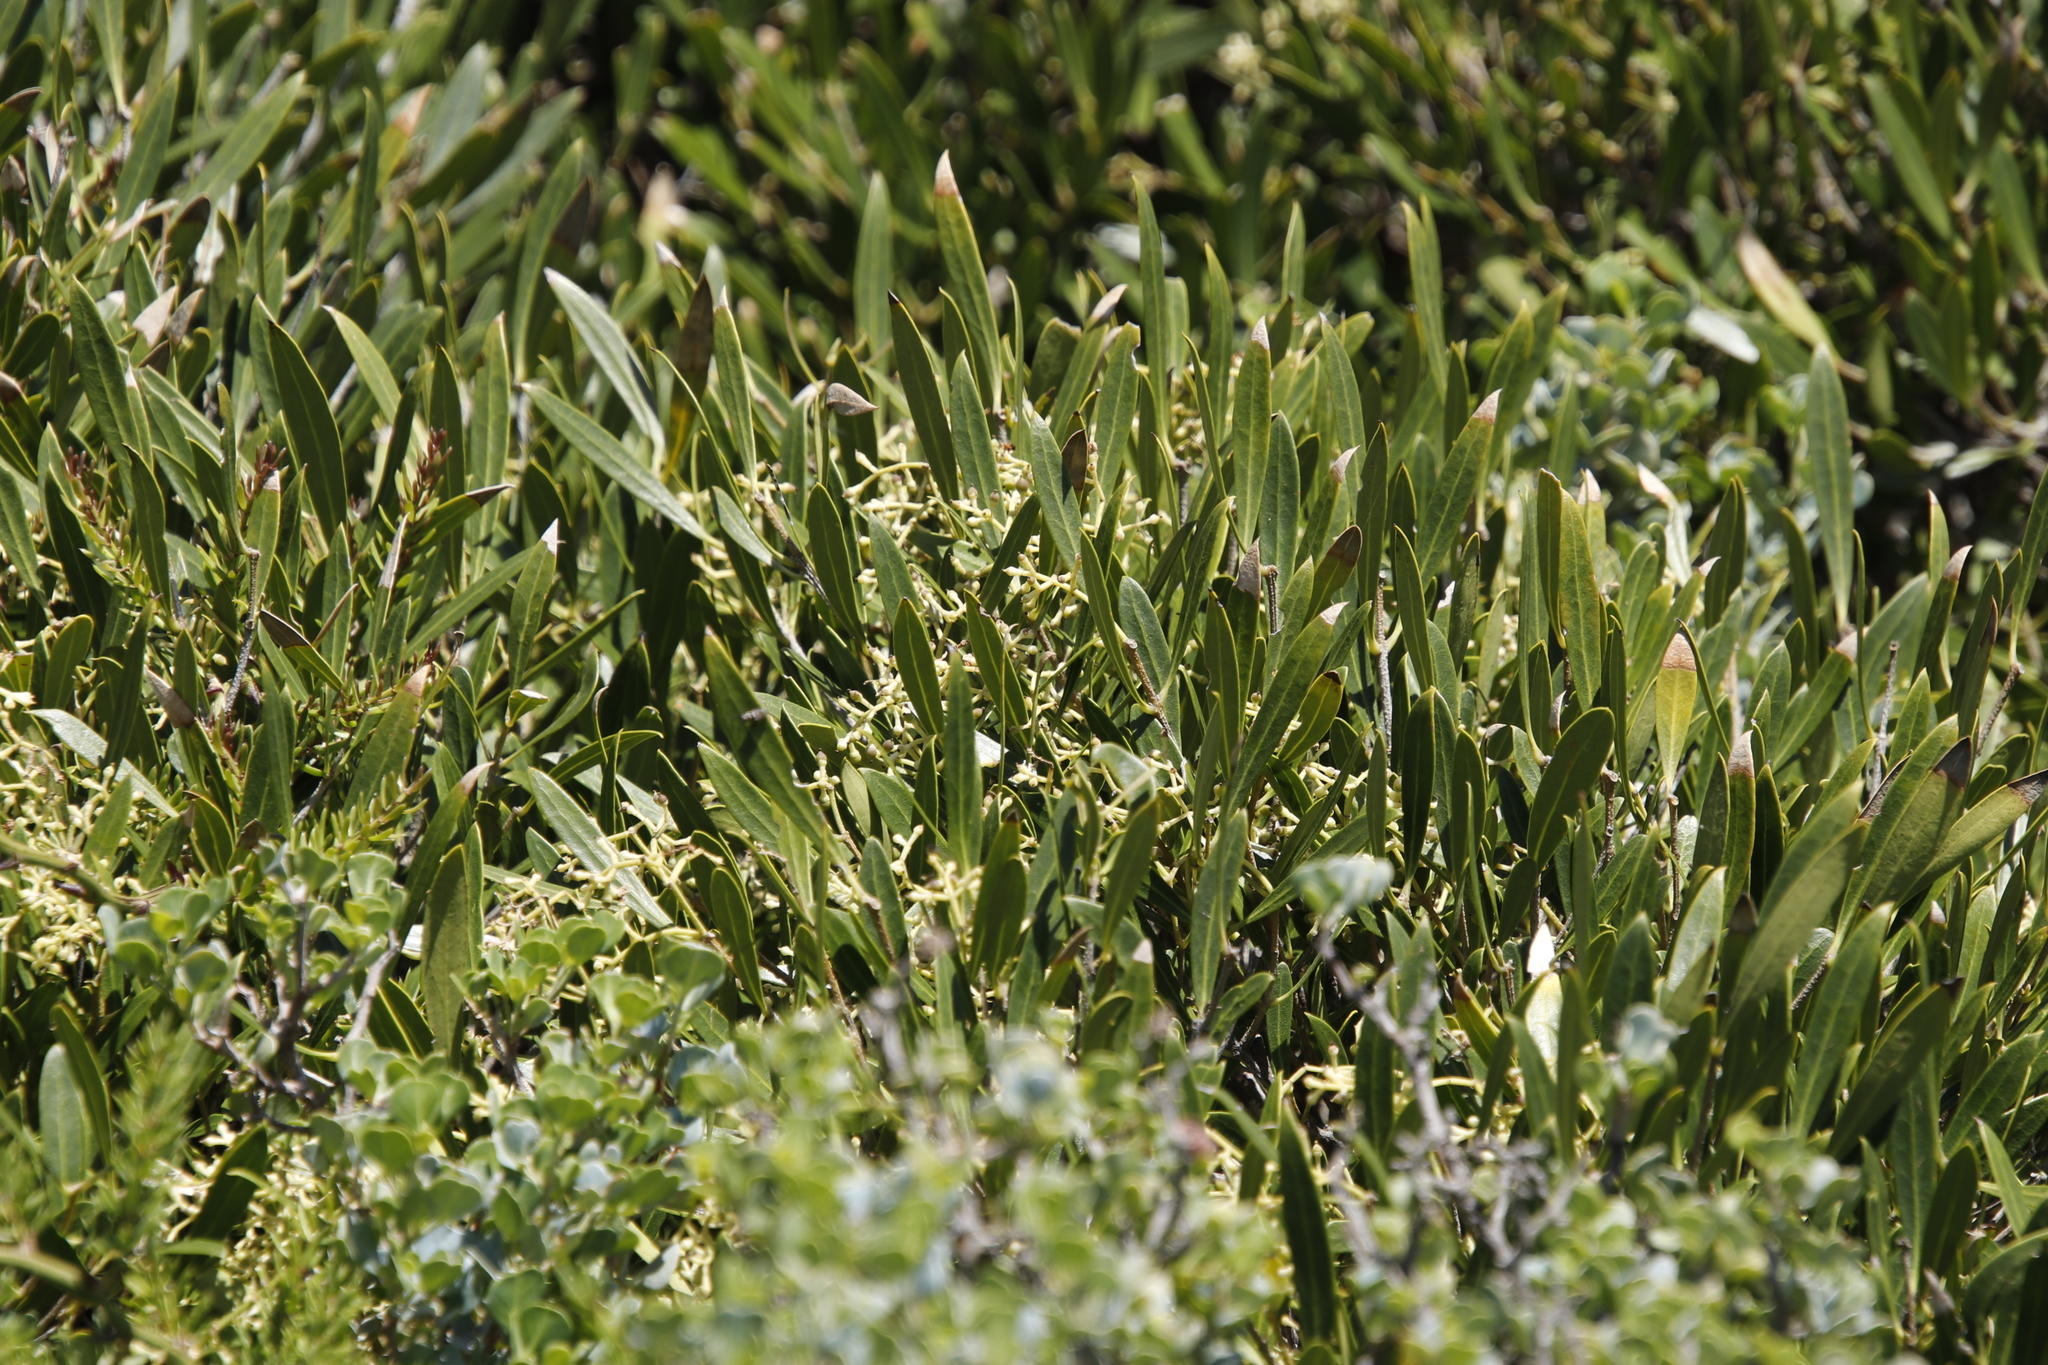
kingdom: Plantae
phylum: Tracheophyta
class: Magnoliopsida
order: Lamiales
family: Oleaceae
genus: Olea
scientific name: Olea exasperata
